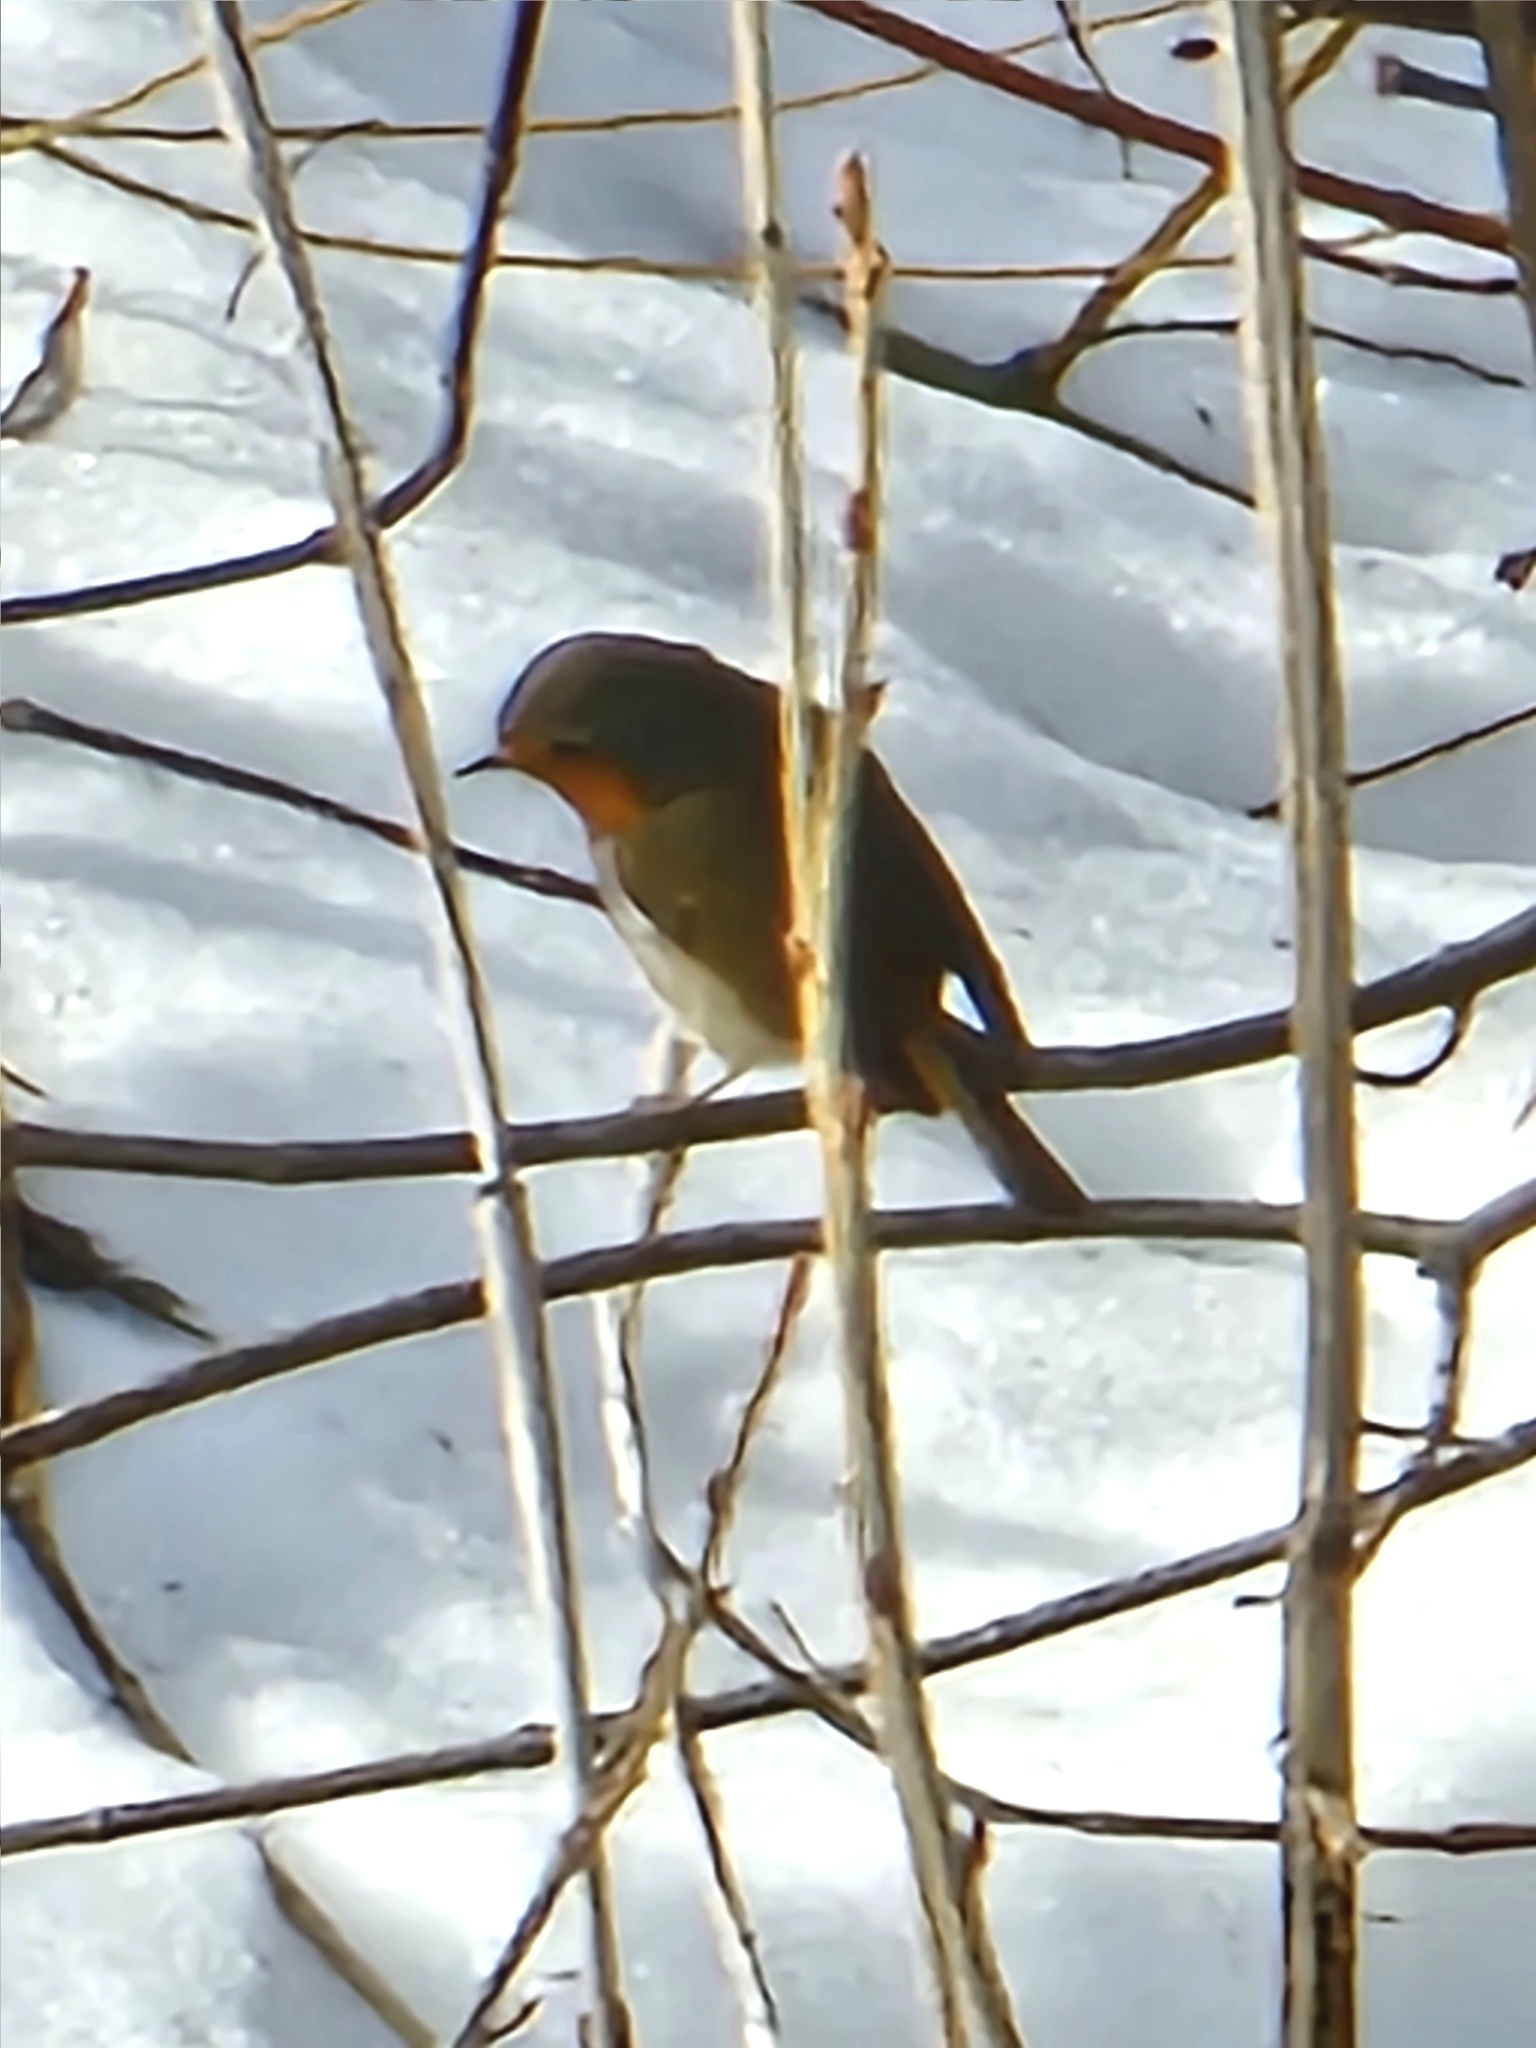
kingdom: Animalia
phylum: Chordata
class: Aves
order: Passeriformes
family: Muscicapidae
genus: Erithacus
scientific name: Erithacus rubecula
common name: European robin
